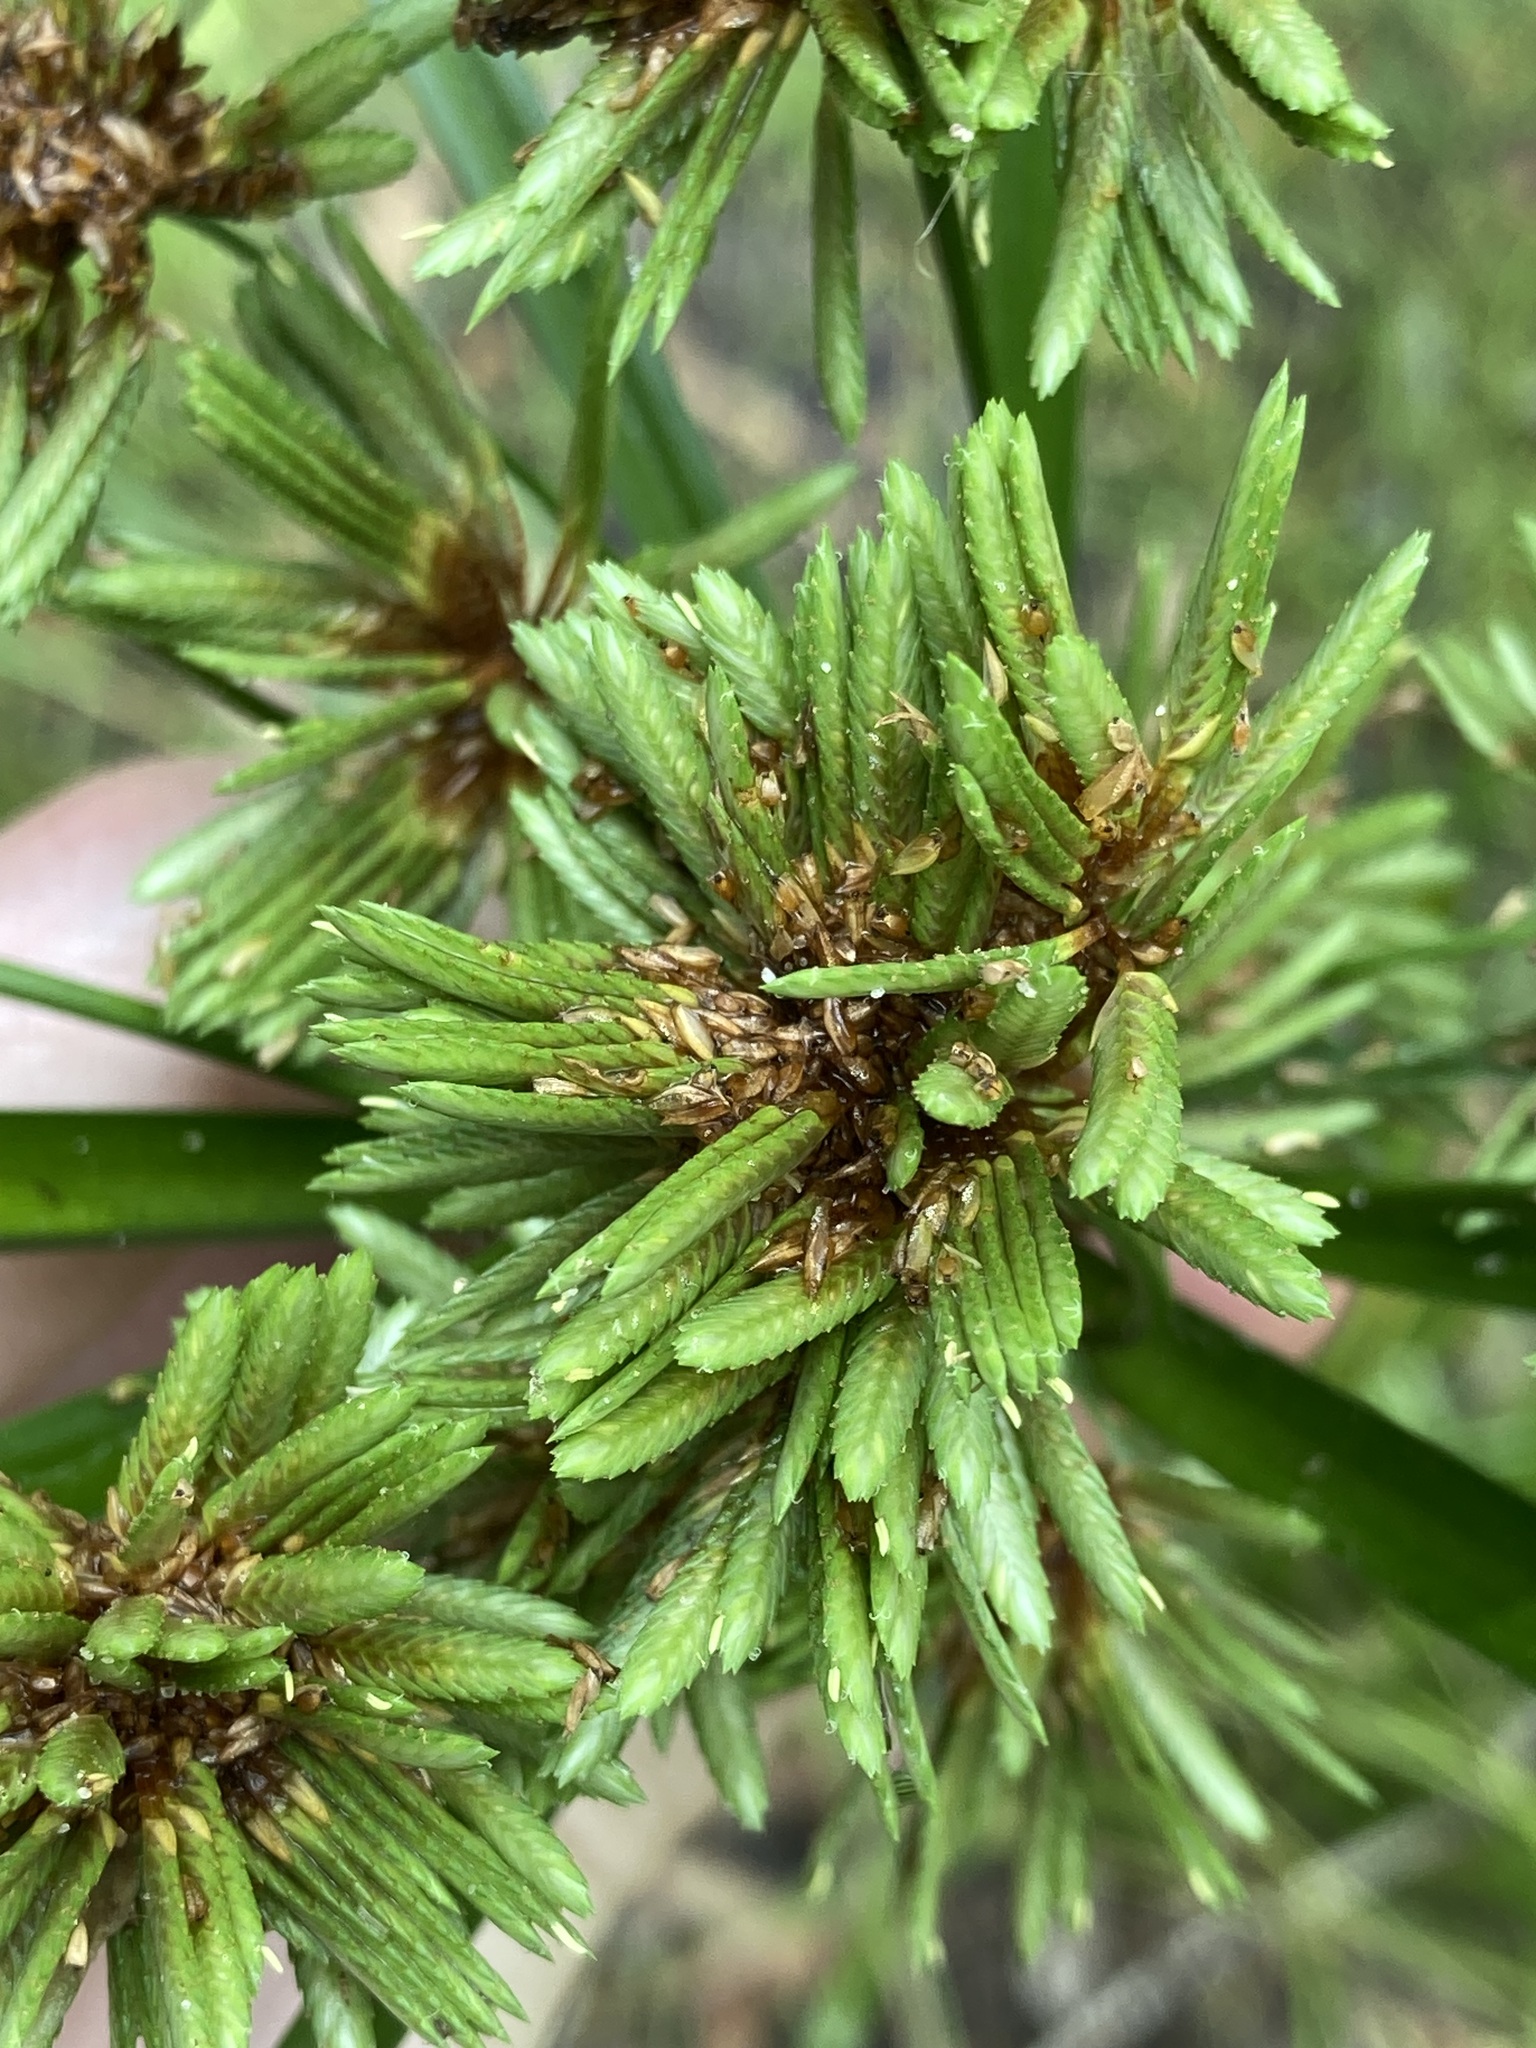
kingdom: Plantae
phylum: Tracheophyta
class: Liliopsida
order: Poales
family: Cyperaceae
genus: Cyperus
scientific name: Cyperus eragrostis
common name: Tall flatsedge
